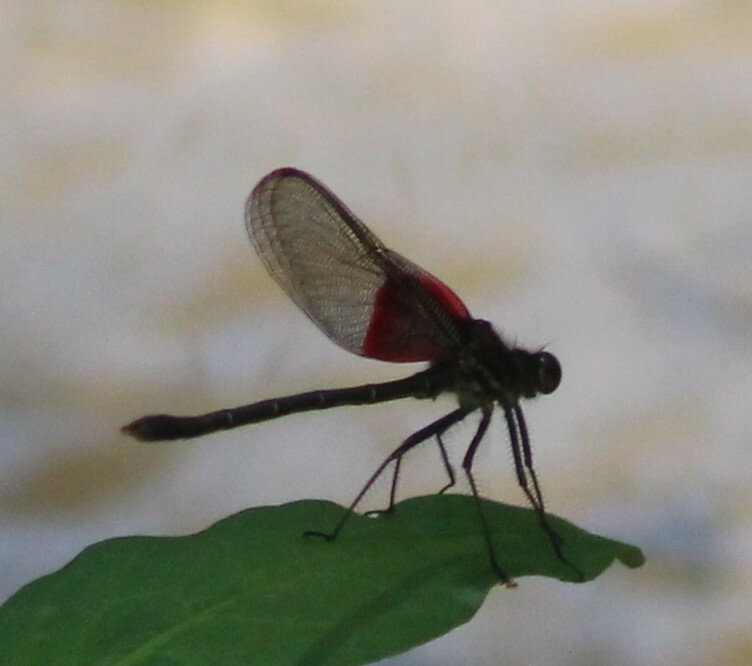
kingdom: Animalia
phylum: Arthropoda
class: Insecta
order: Odonata
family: Calopterygidae
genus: Hetaerina
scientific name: Hetaerina americana
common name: American rubyspot
